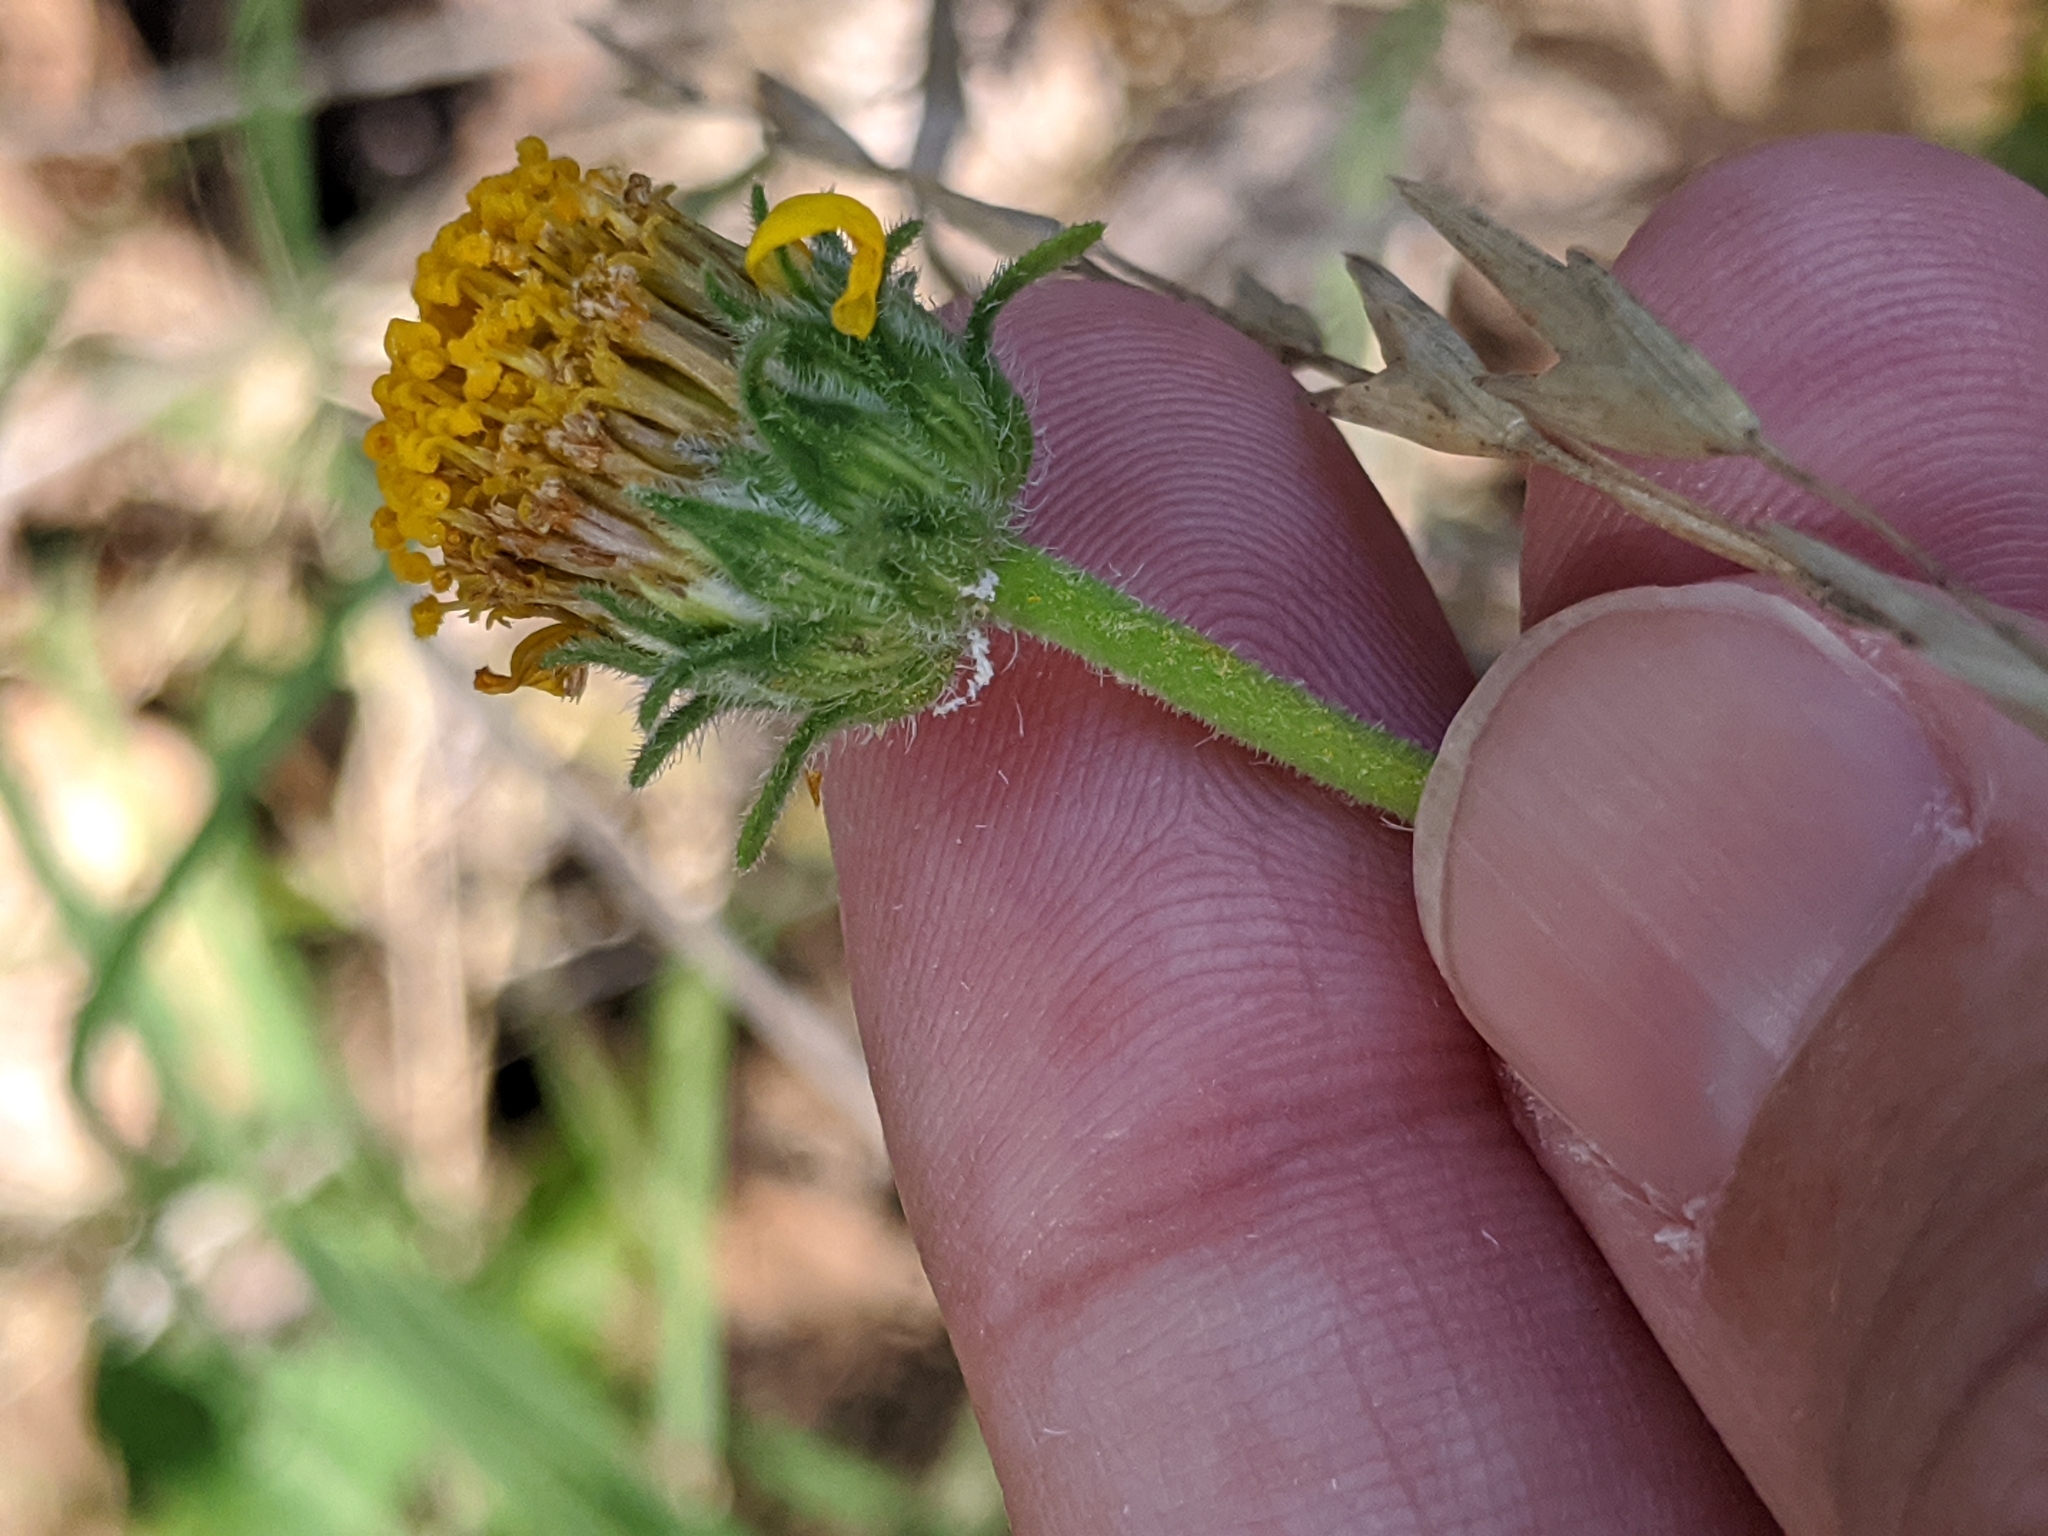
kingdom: Plantae
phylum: Tracheophyta
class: Magnoliopsida
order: Asterales
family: Asteraceae
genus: Simsia
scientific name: Simsia calva
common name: Awnless bush-sunflower
